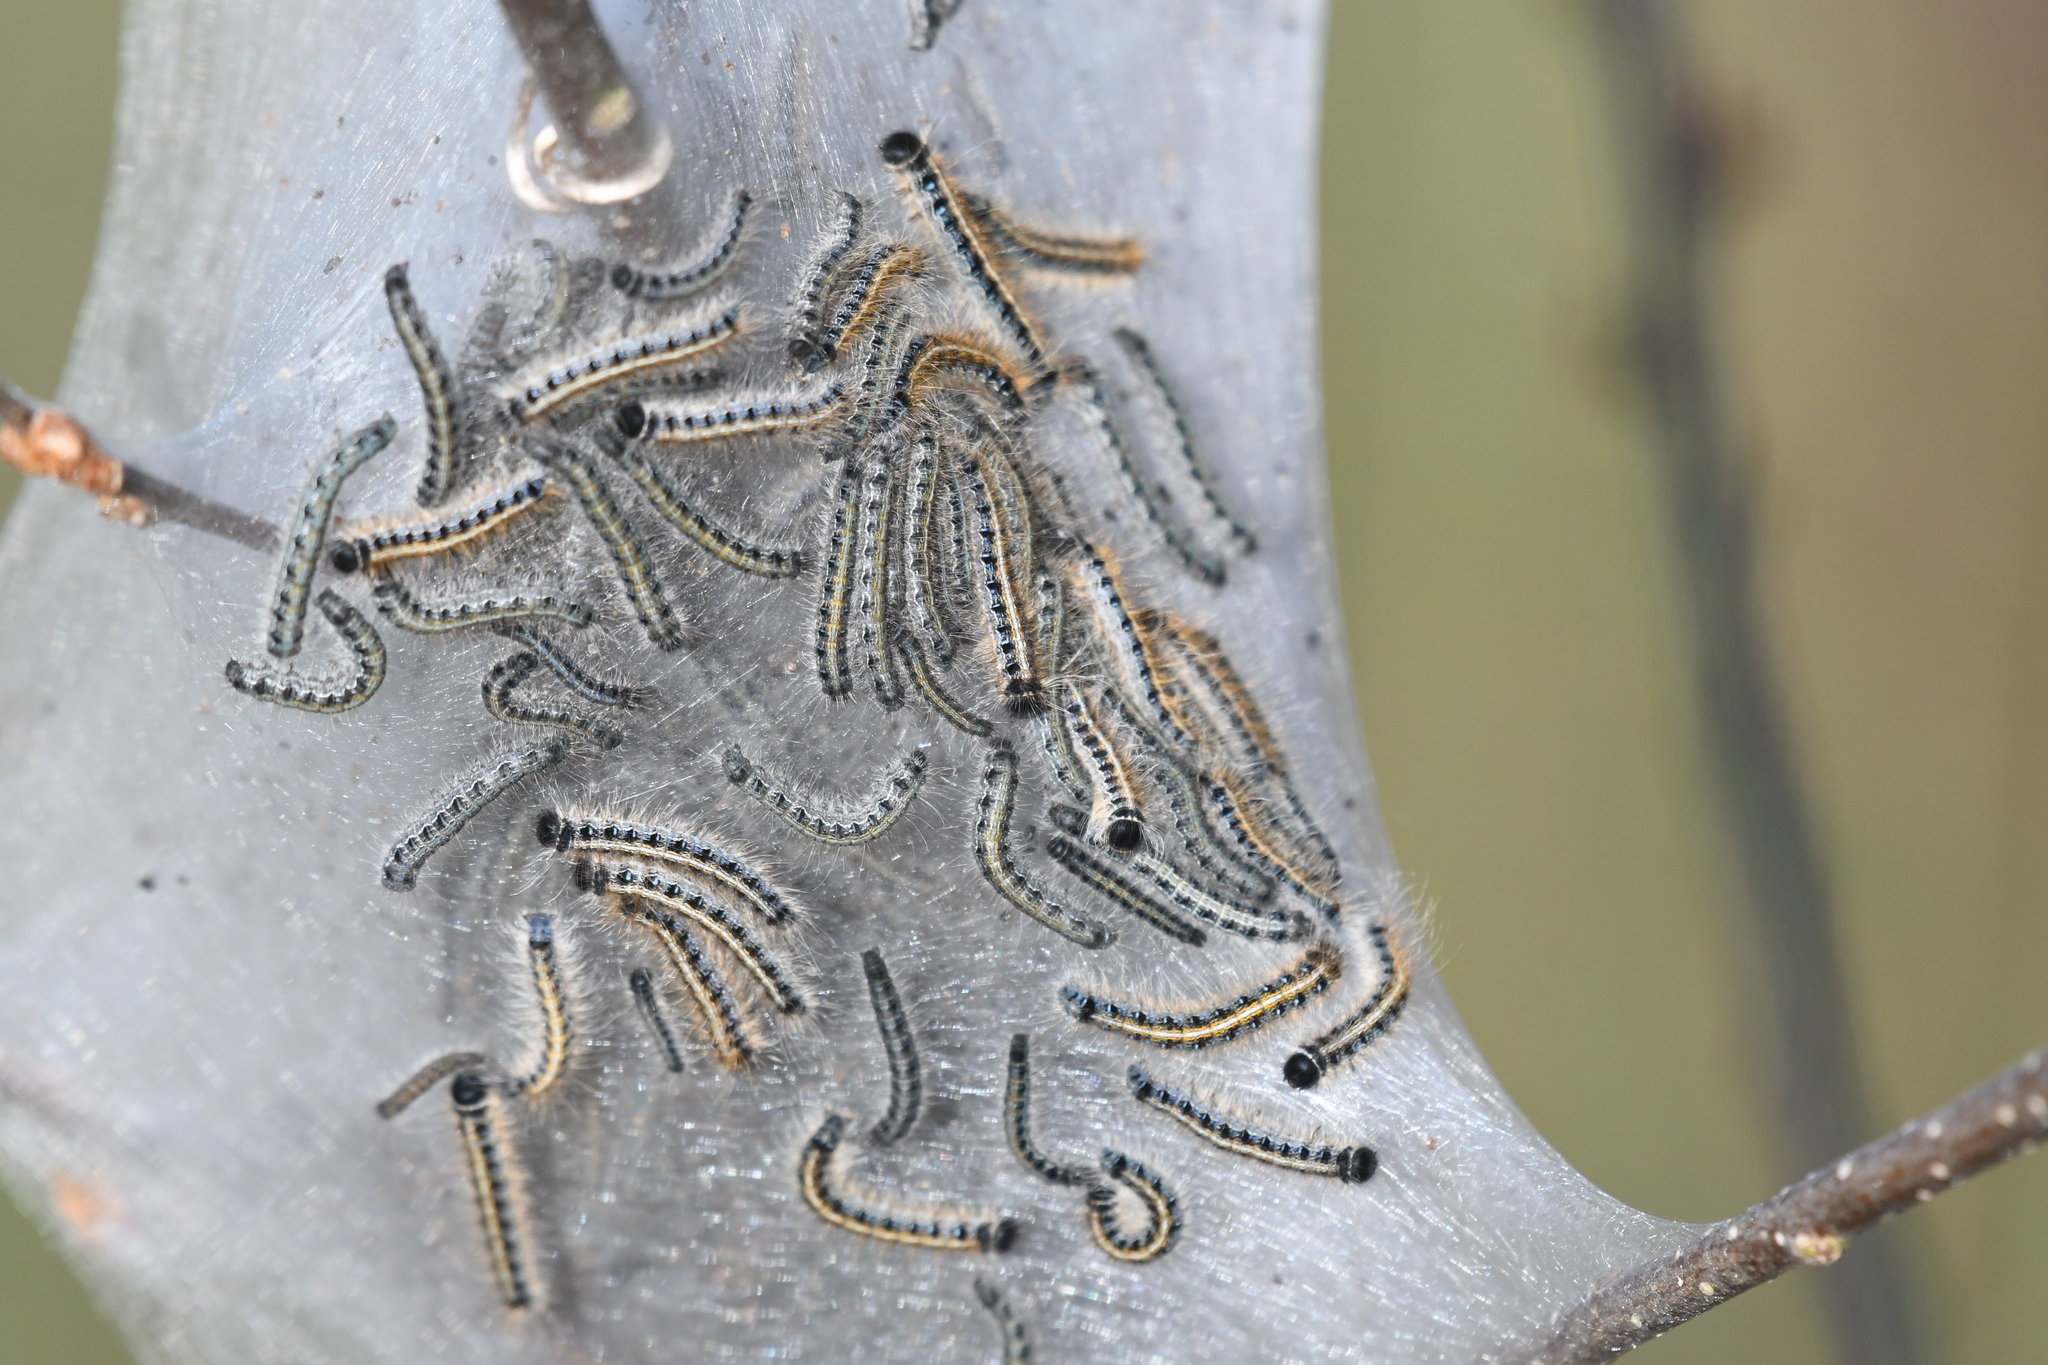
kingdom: Animalia
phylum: Arthropoda
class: Insecta
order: Lepidoptera
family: Lasiocampidae
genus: Malacosoma
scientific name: Malacosoma americana
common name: Eastern tent caterpillar moth
